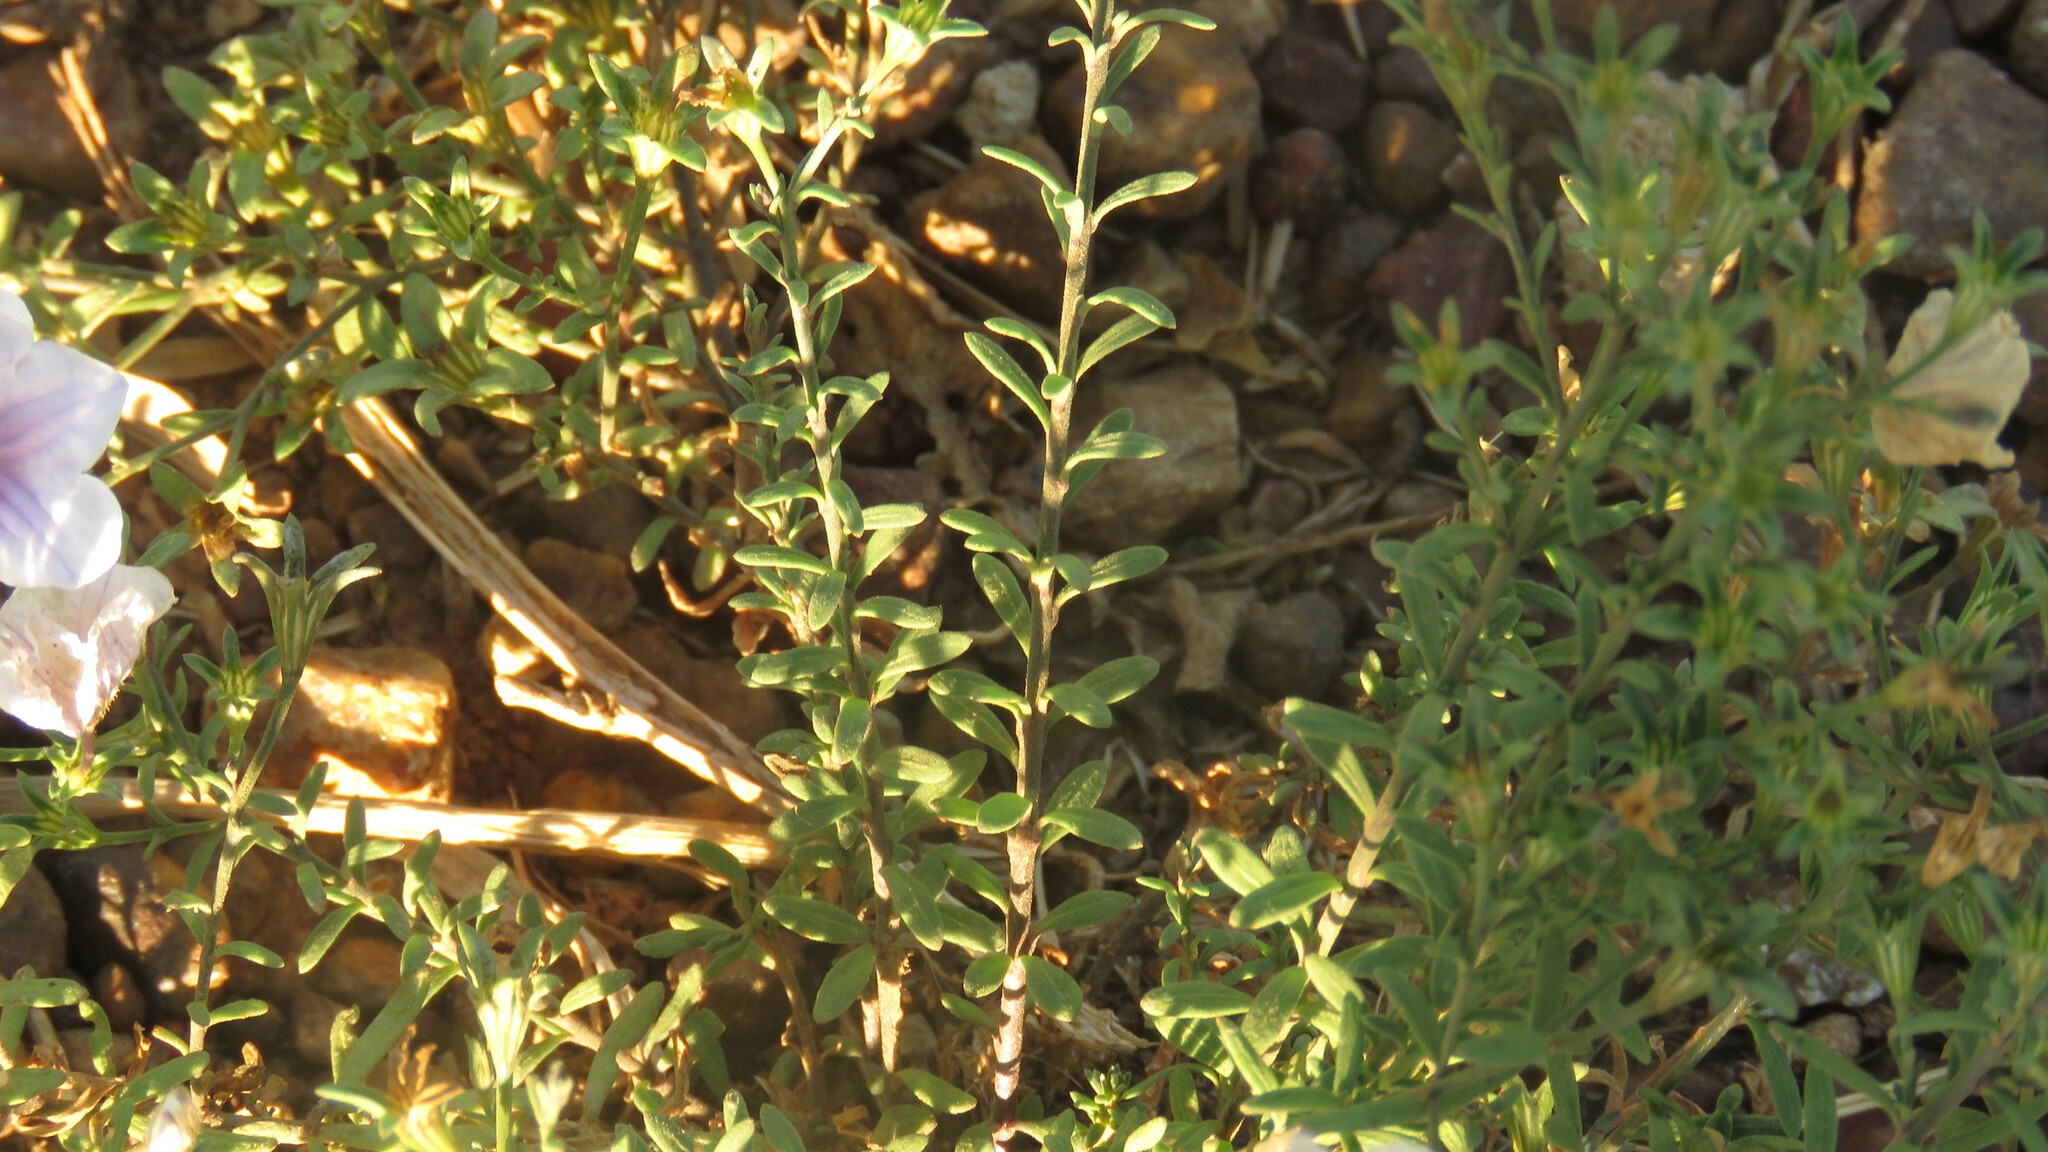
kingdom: Plantae
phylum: Tracheophyta
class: Magnoliopsida
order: Solanales
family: Solanaceae
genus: Nierembergia
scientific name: Nierembergia linariifolia
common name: Dwarf cupflower
